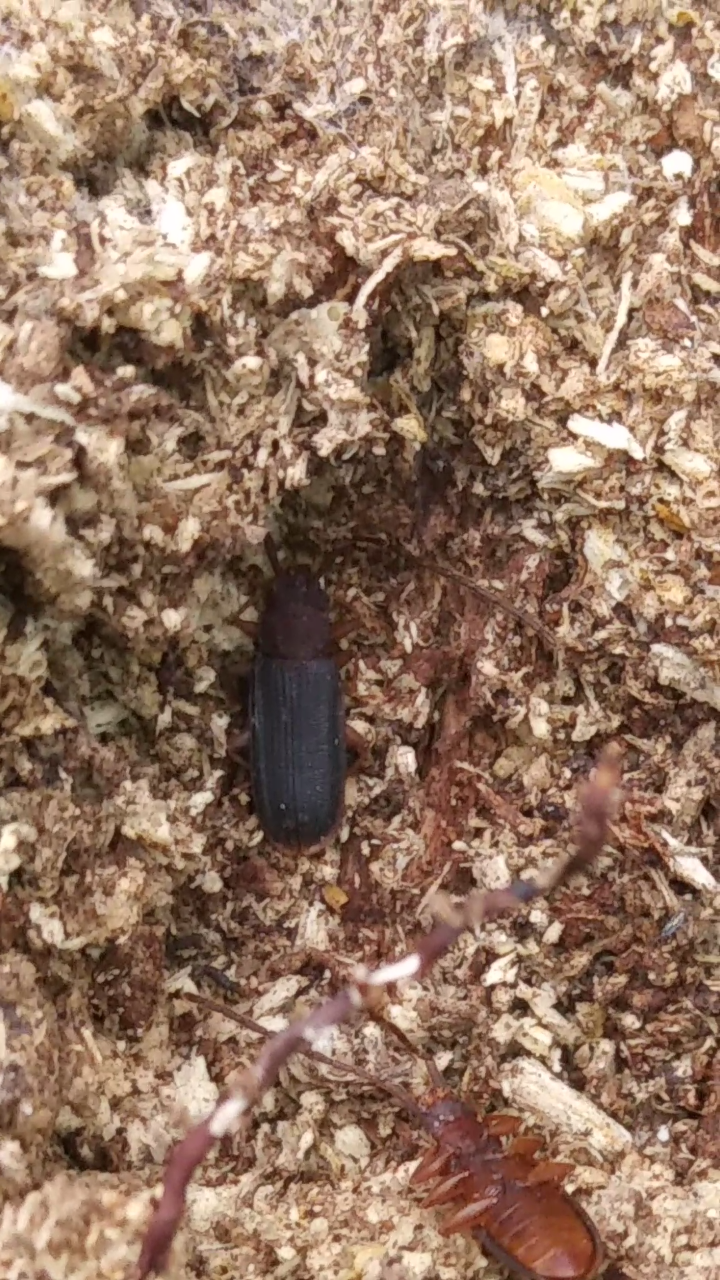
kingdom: Animalia
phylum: Arthropoda
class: Insecta
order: Coleoptera
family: Silvanidae
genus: Uleiota
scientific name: Uleiota dubia
